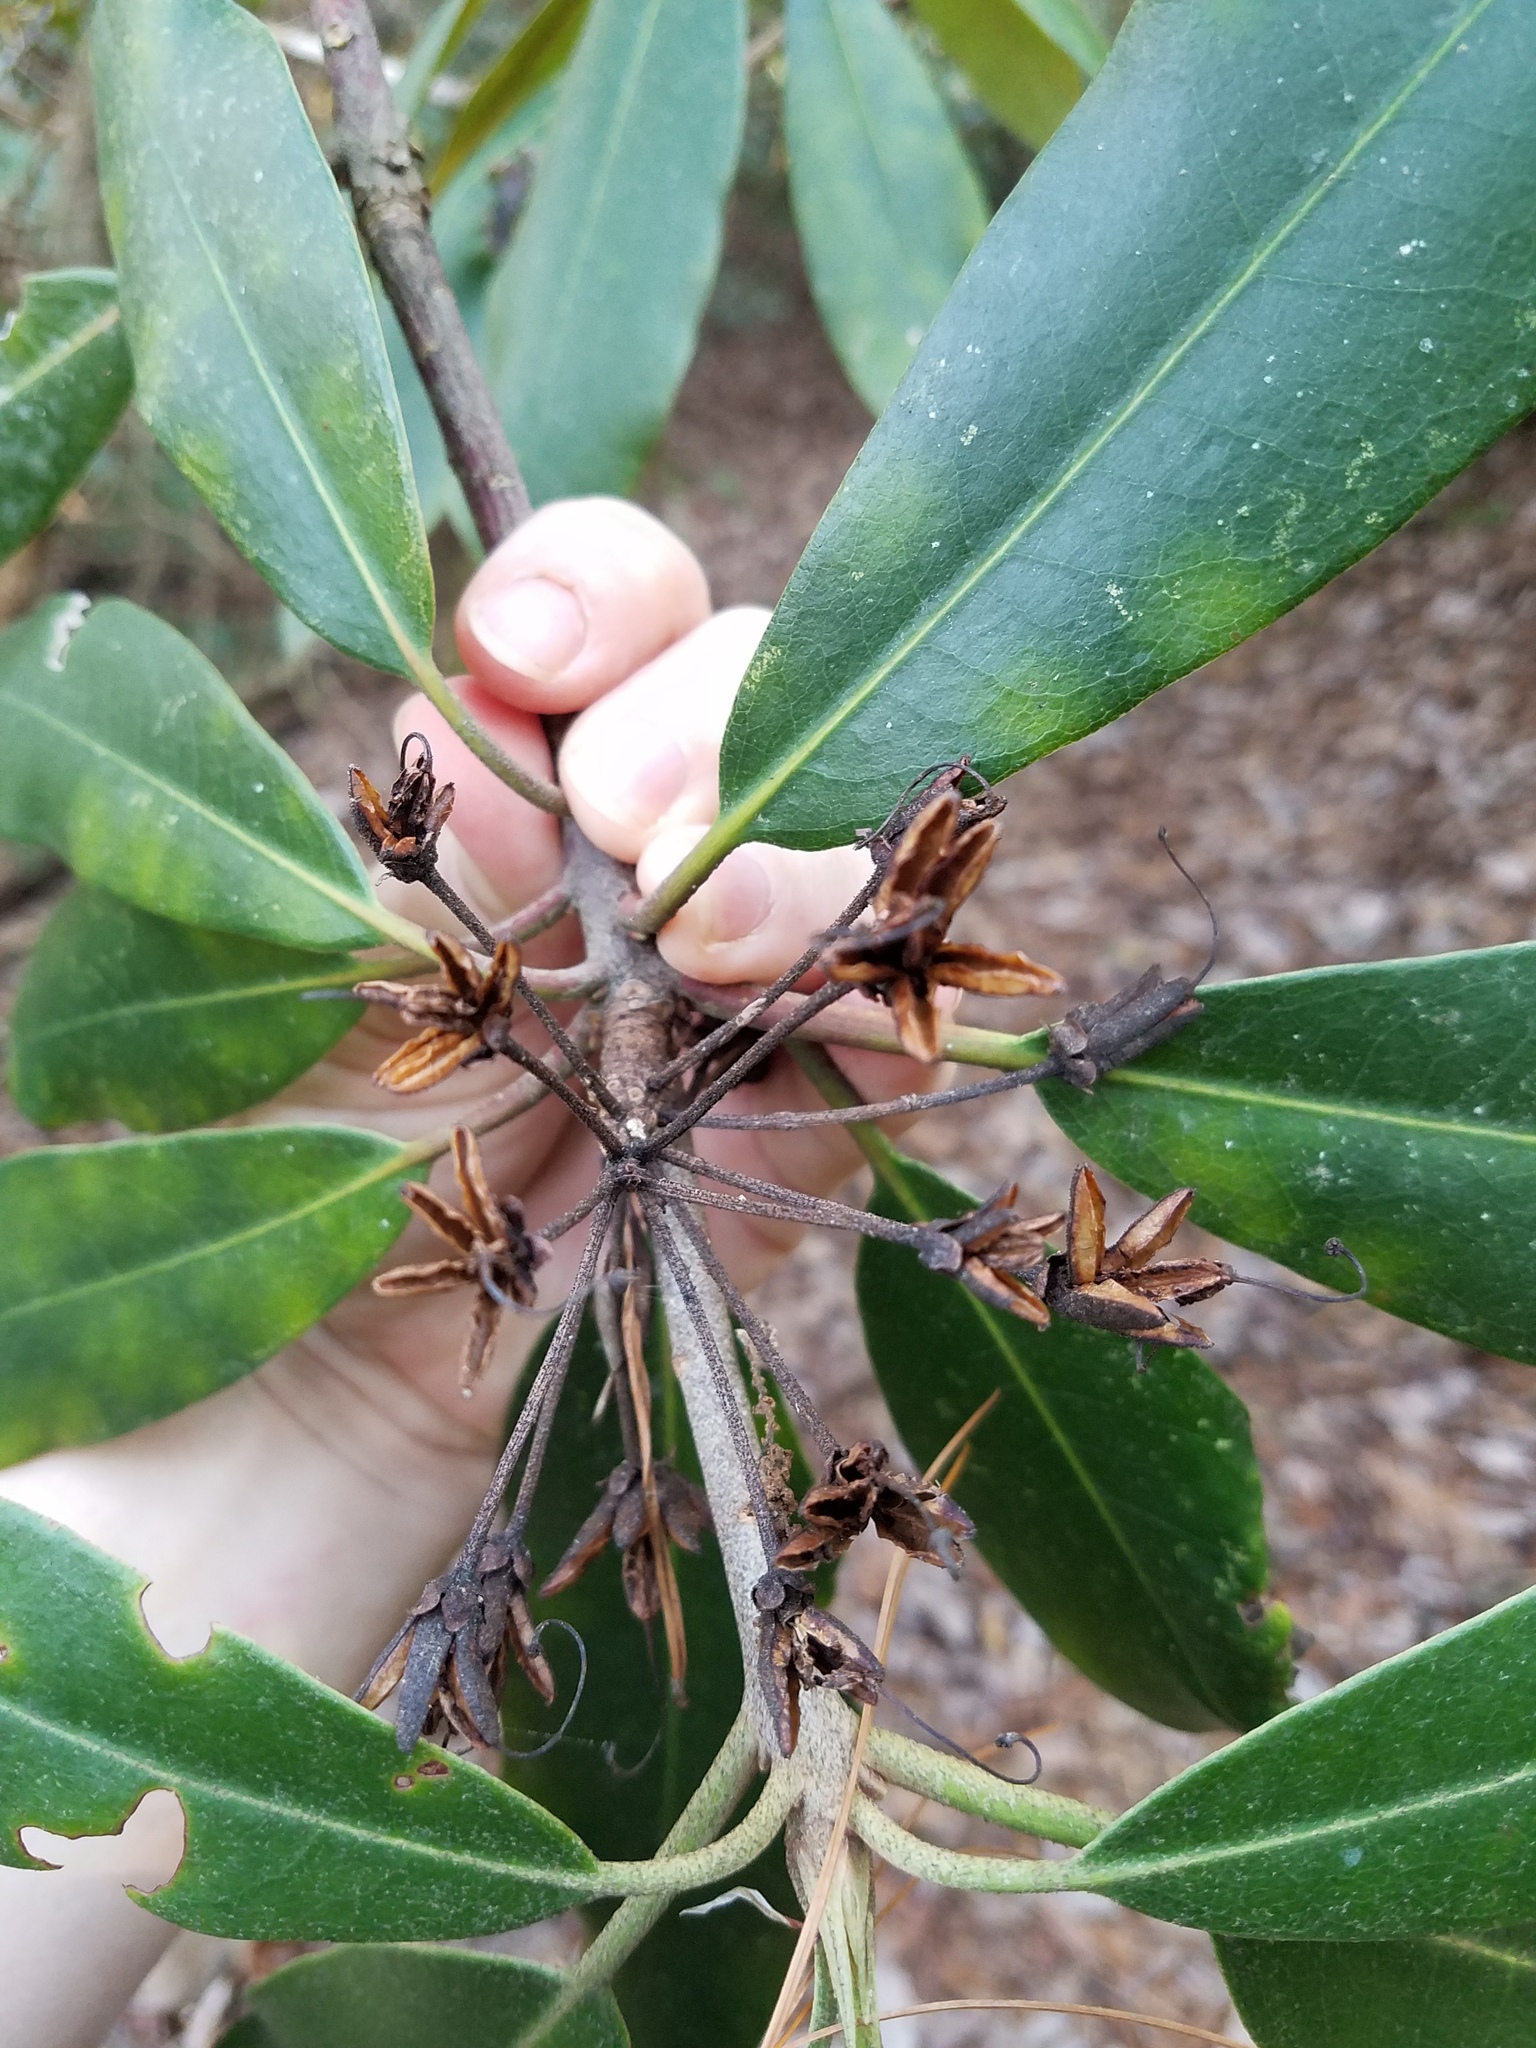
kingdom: Plantae
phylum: Tracheophyta
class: Magnoliopsida
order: Ericales
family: Ericaceae
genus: Rhododendron
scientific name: Rhododendron maximum
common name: Great rhododendron
